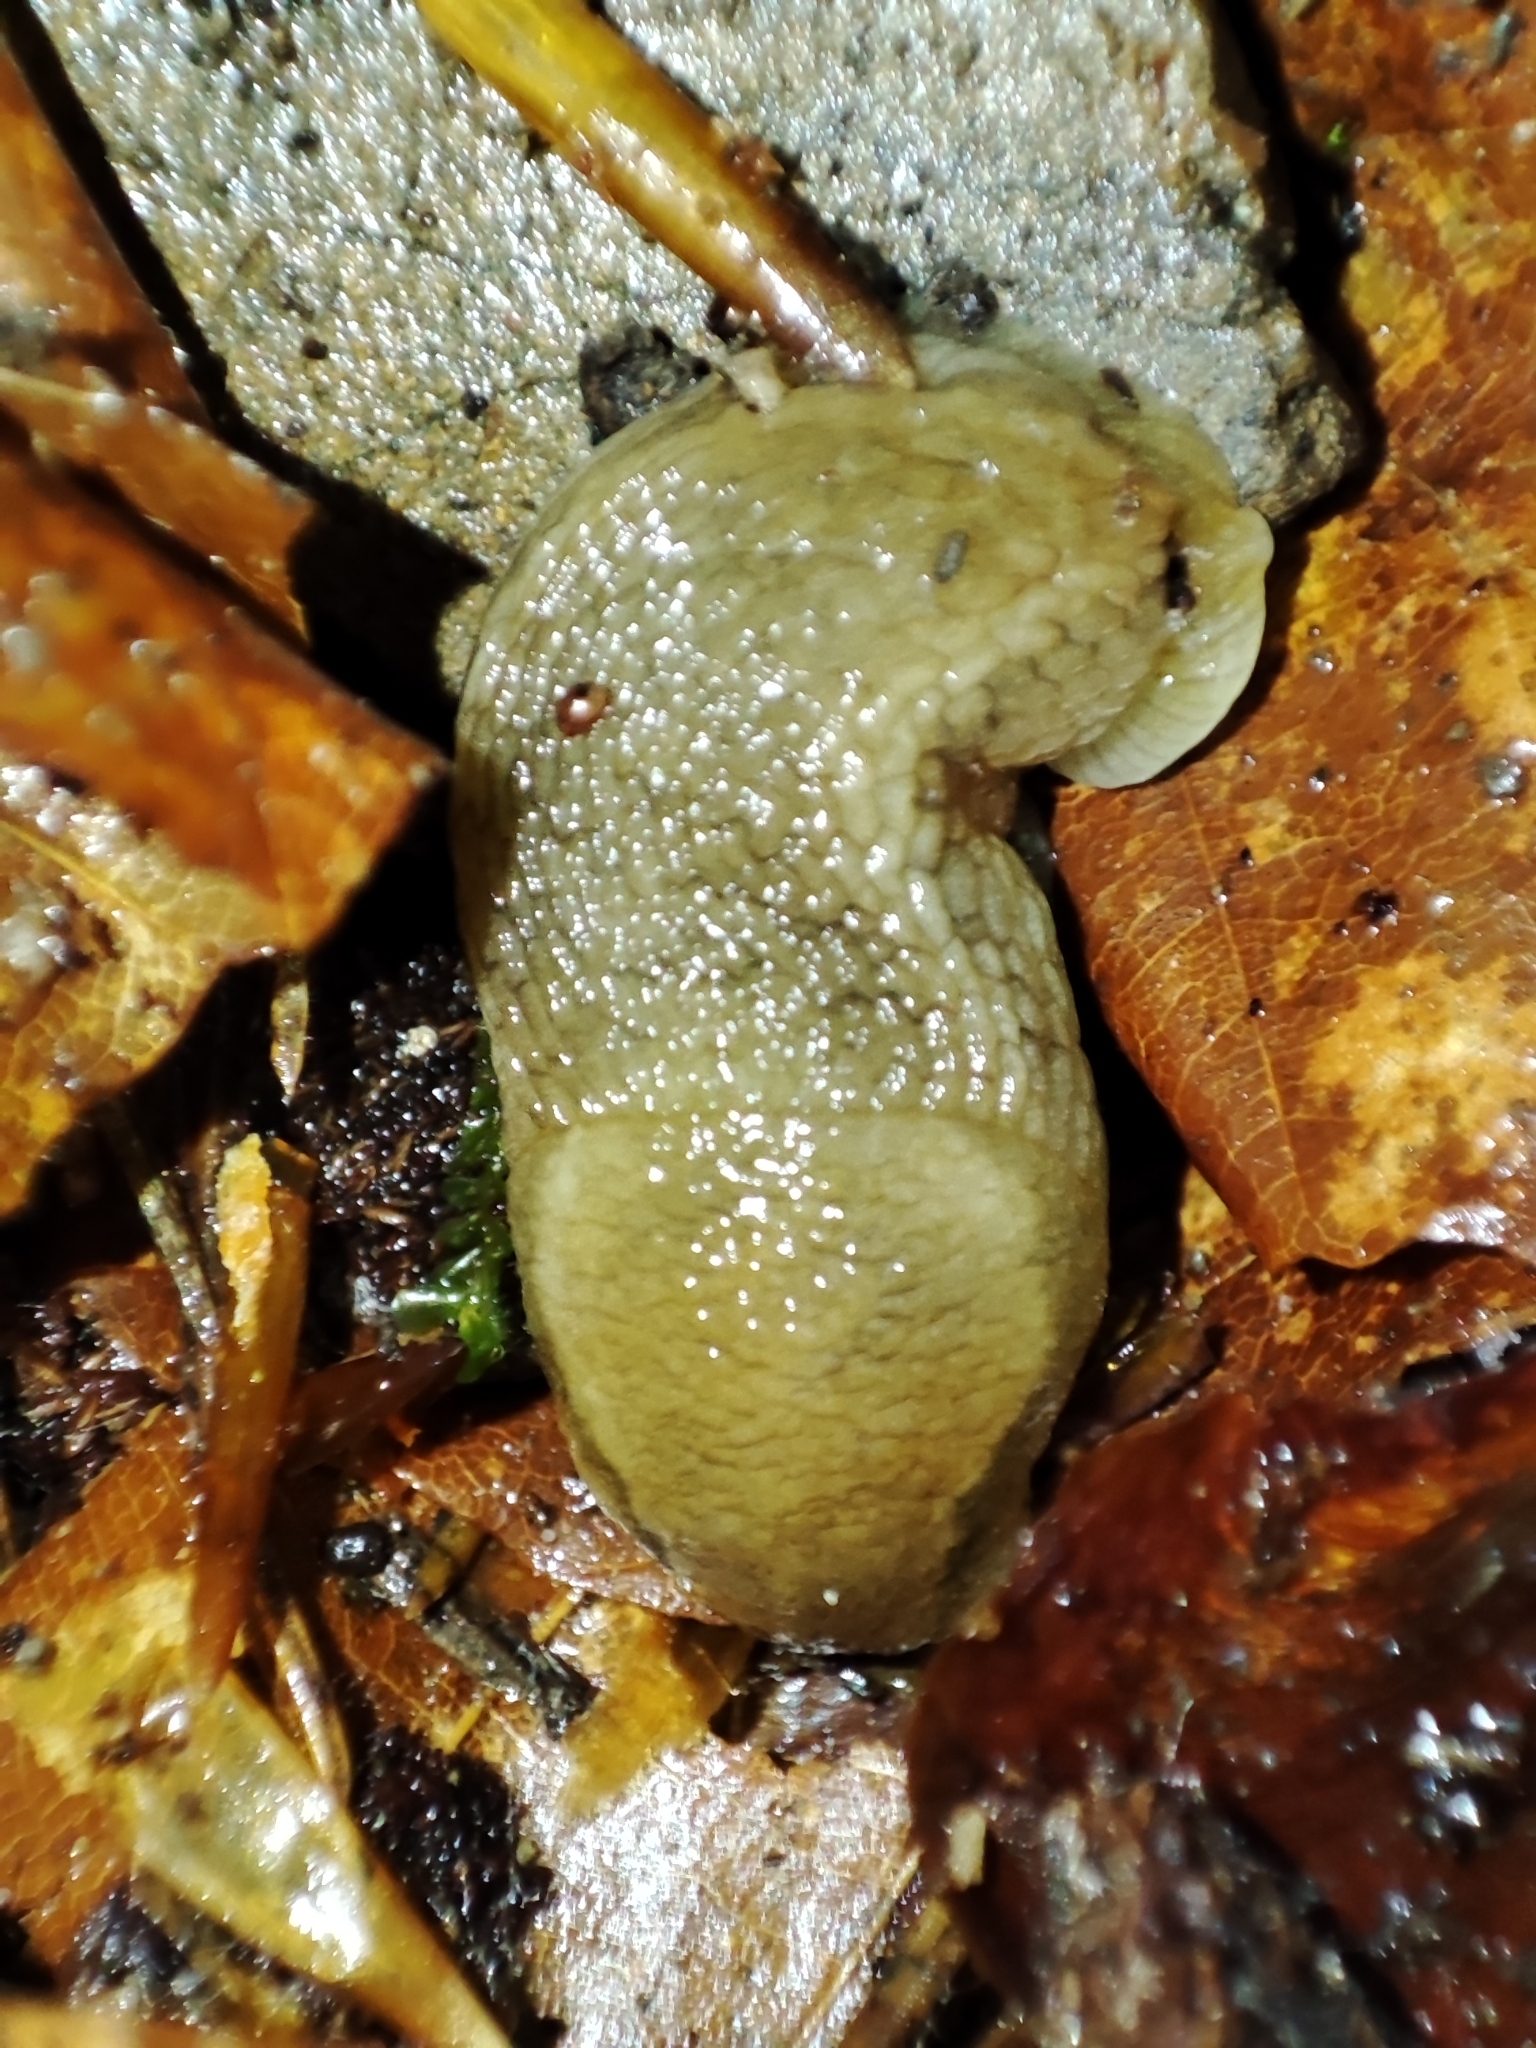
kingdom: Animalia
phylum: Mollusca
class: Gastropoda
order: Stylommatophora
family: Arionidae
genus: Arion
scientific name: Arion fuscus
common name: Northern dusky slug
